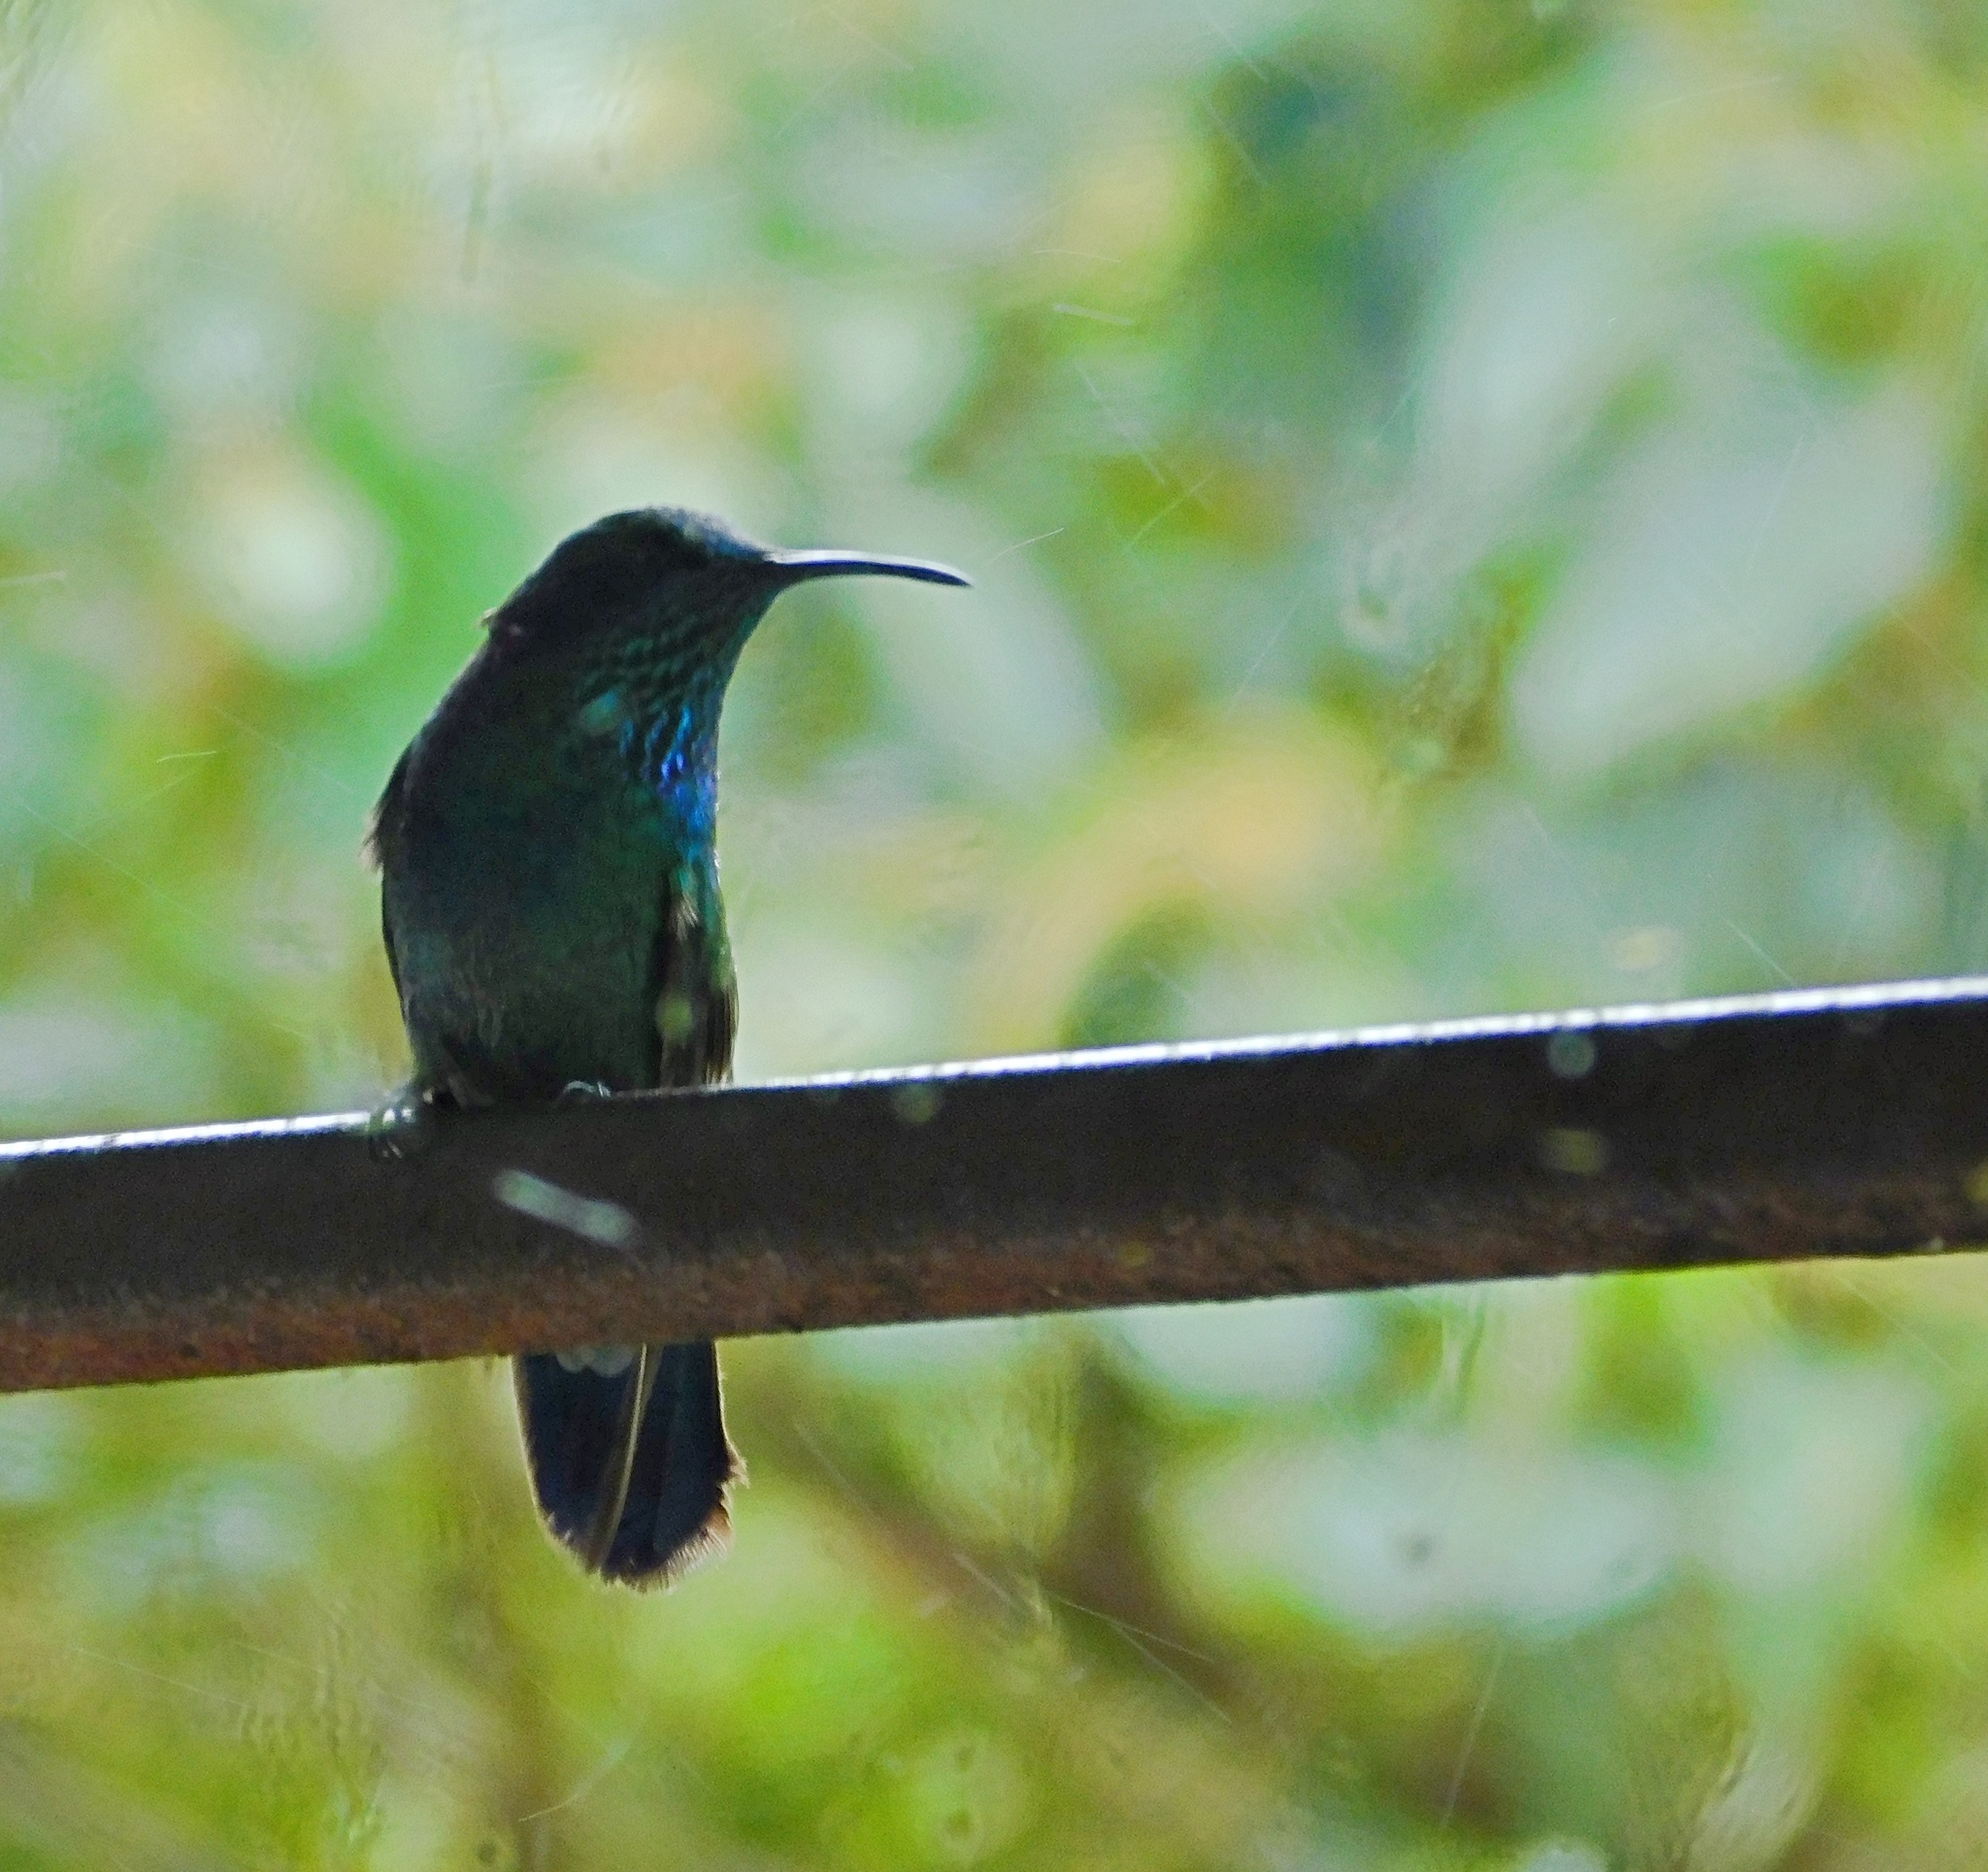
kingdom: Animalia
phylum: Chordata
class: Aves
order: Apodiformes
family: Trochilidae
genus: Colibri
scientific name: Colibri cyanotus
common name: Lesser violetear
